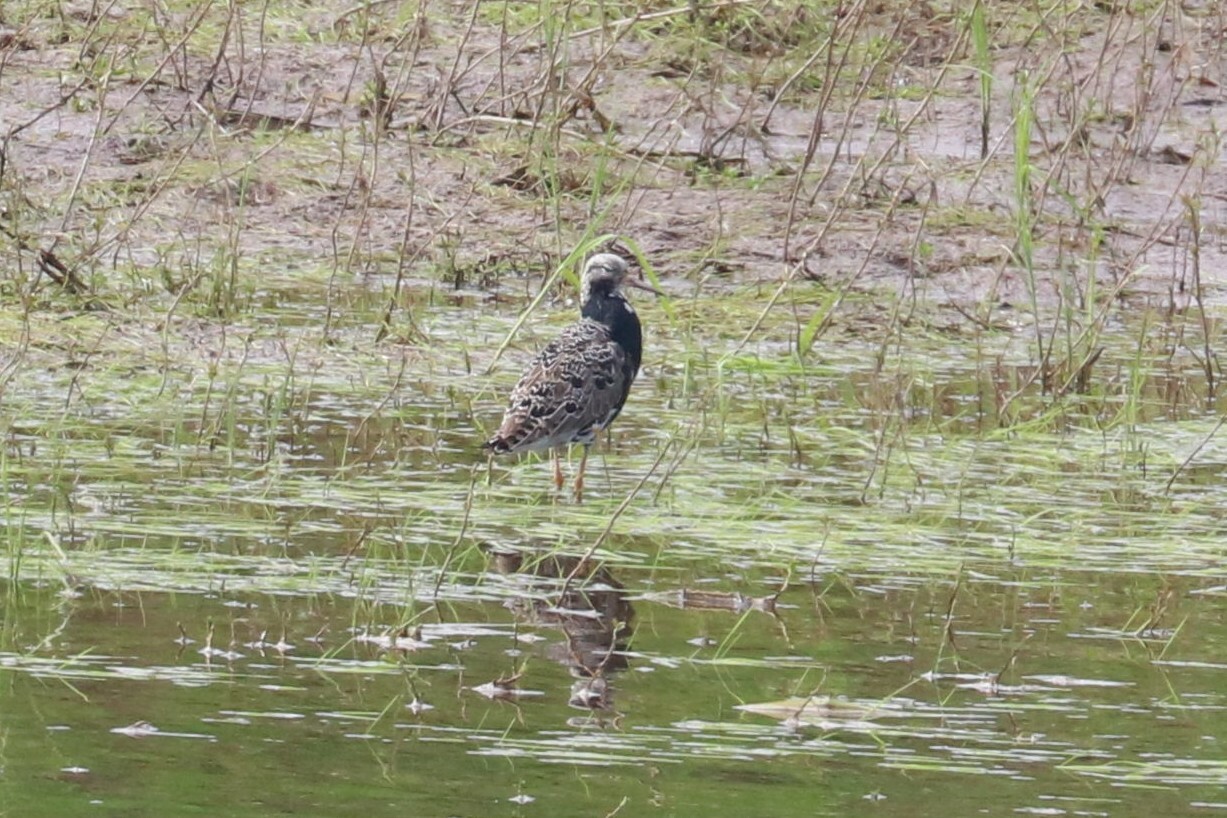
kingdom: Animalia
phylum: Chordata
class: Aves
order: Charadriiformes
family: Scolopacidae
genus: Calidris
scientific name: Calidris pugnax
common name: Ruff
